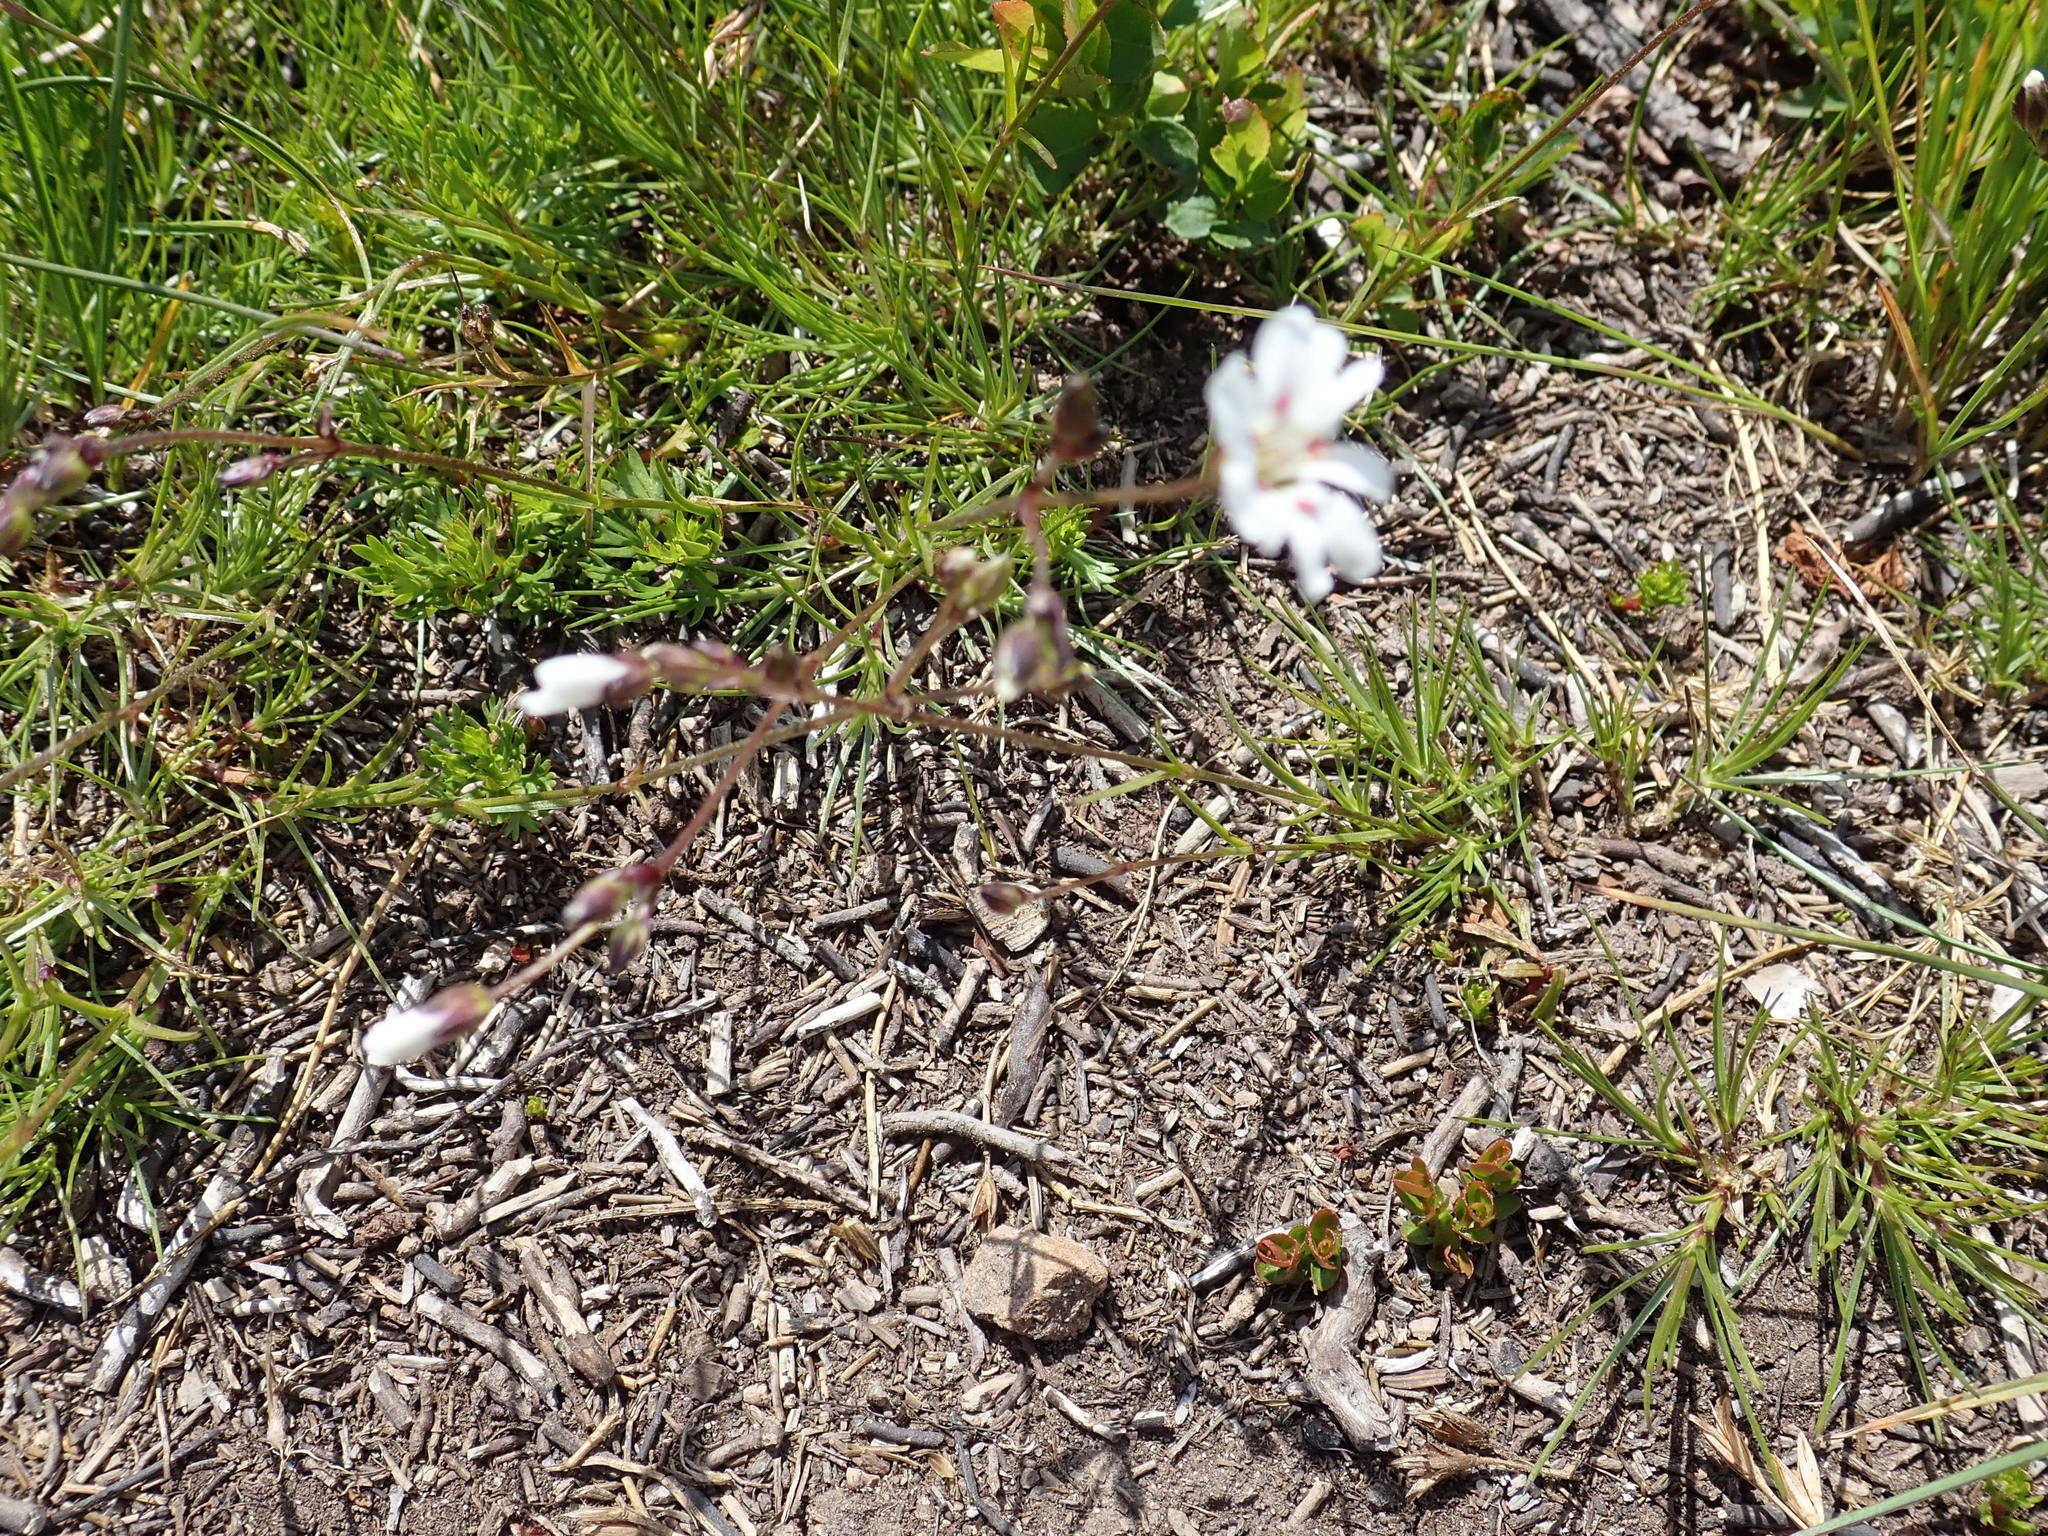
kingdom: Plantae
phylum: Tracheophyta
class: Magnoliopsida
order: Caryophyllales
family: Caryophyllaceae
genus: Eremogone
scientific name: Eremogone capillaris
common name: Slender mountain sandwort
